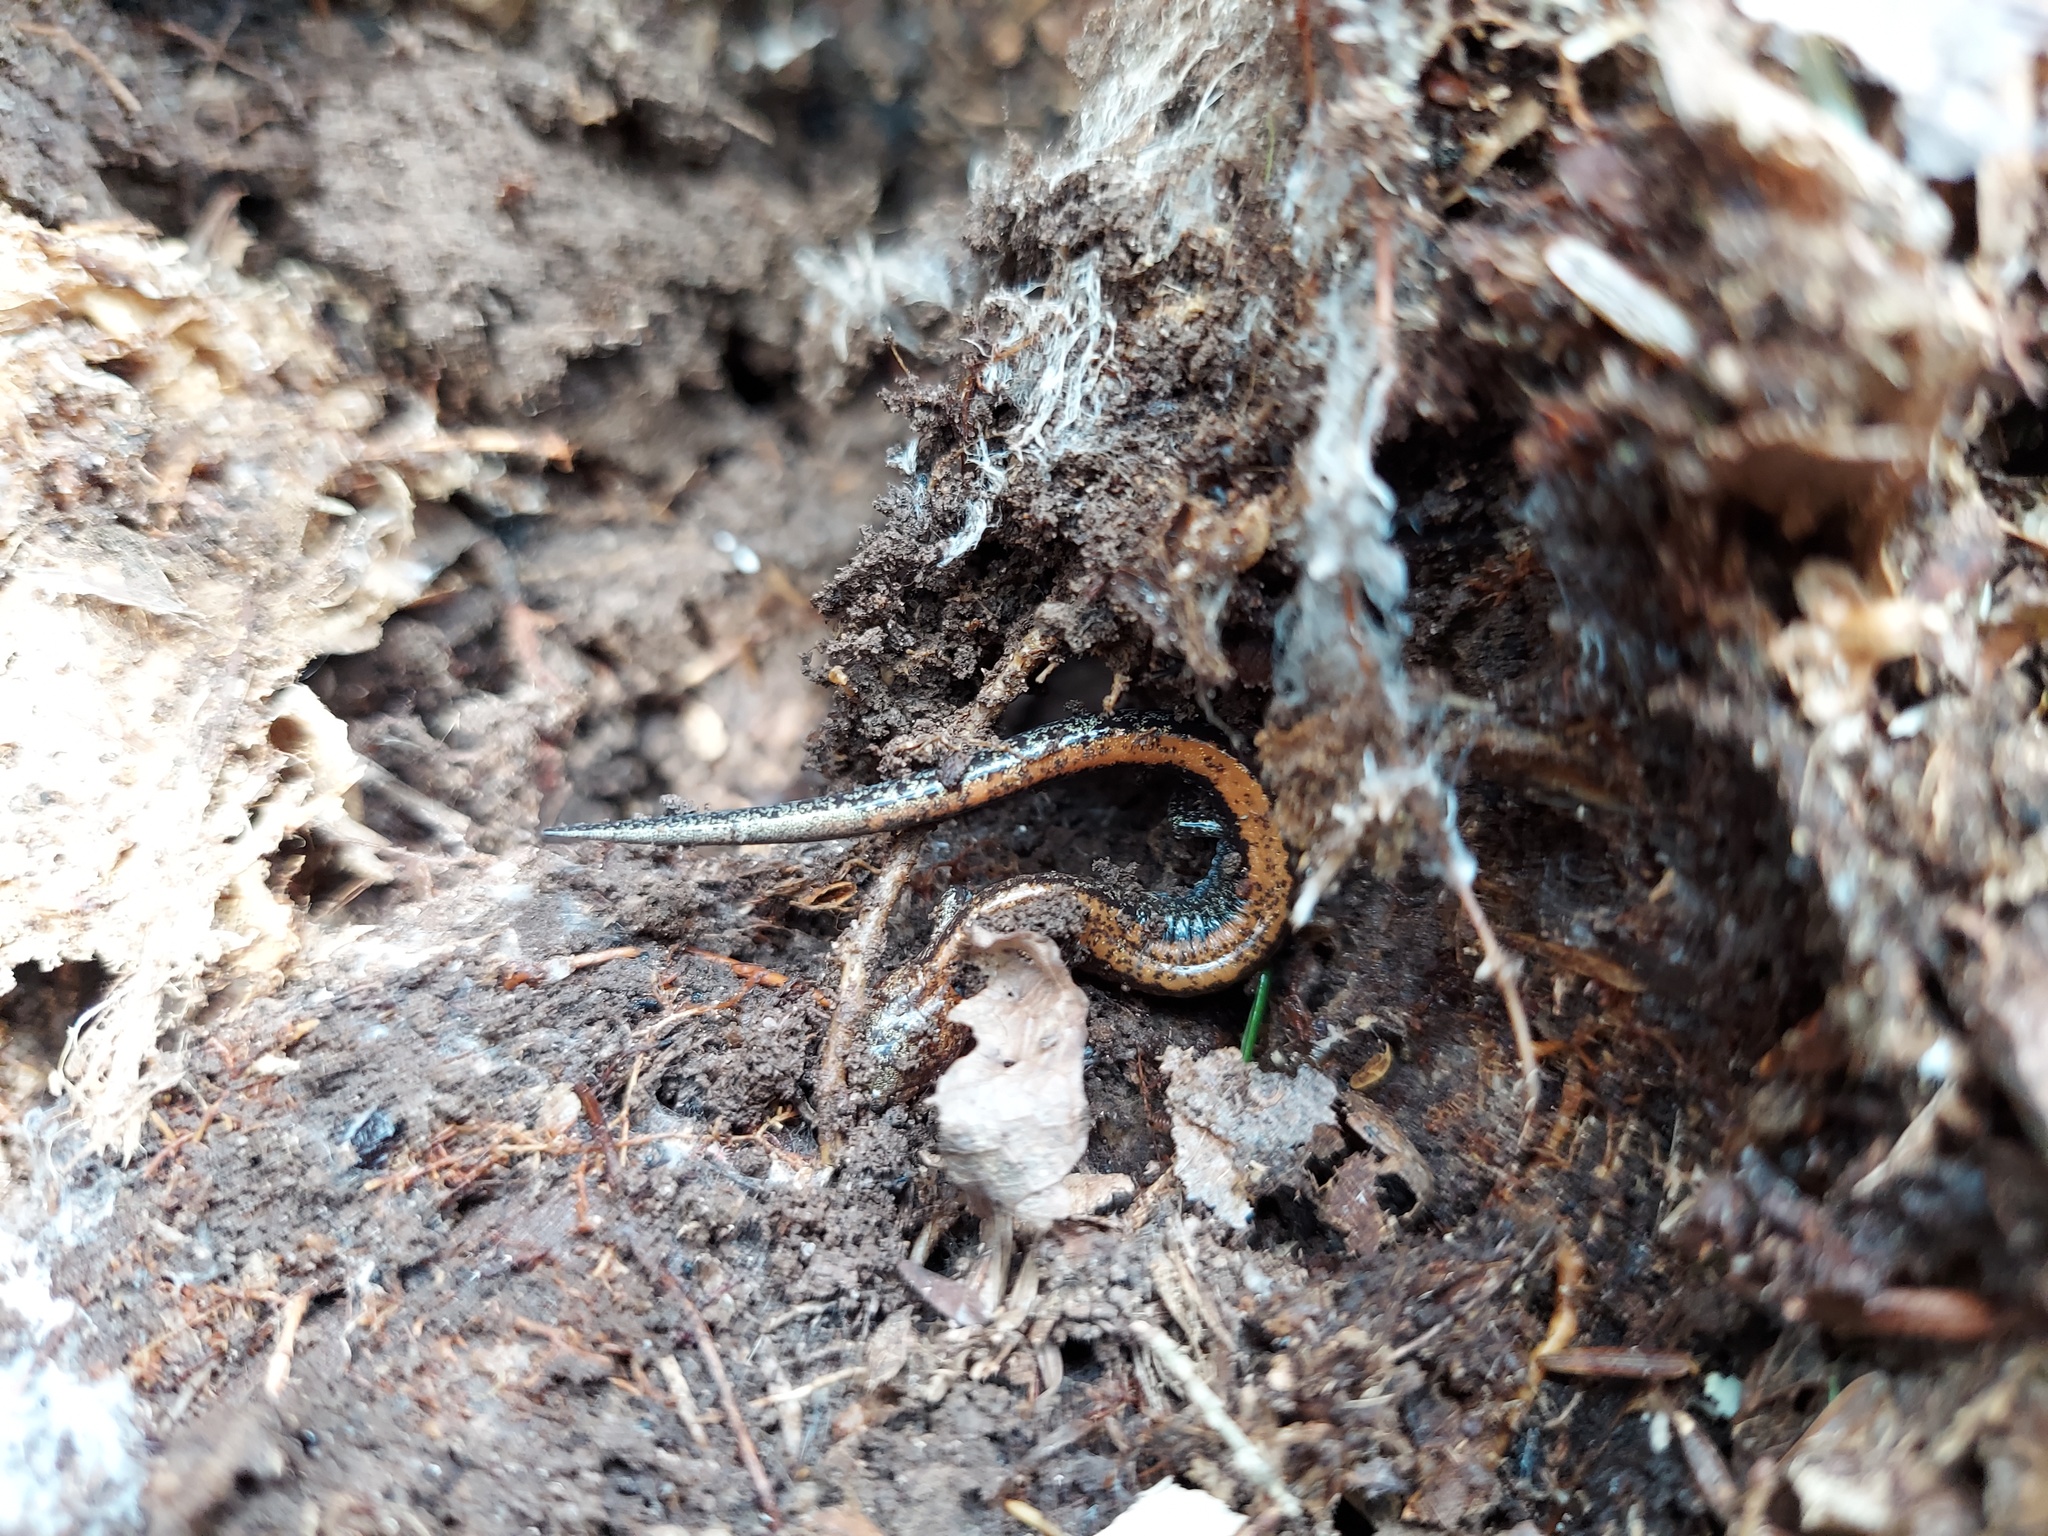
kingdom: Animalia
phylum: Chordata
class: Amphibia
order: Caudata
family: Plethodontidae
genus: Plethodon
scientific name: Plethodon cinereus
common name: Redback salamander
